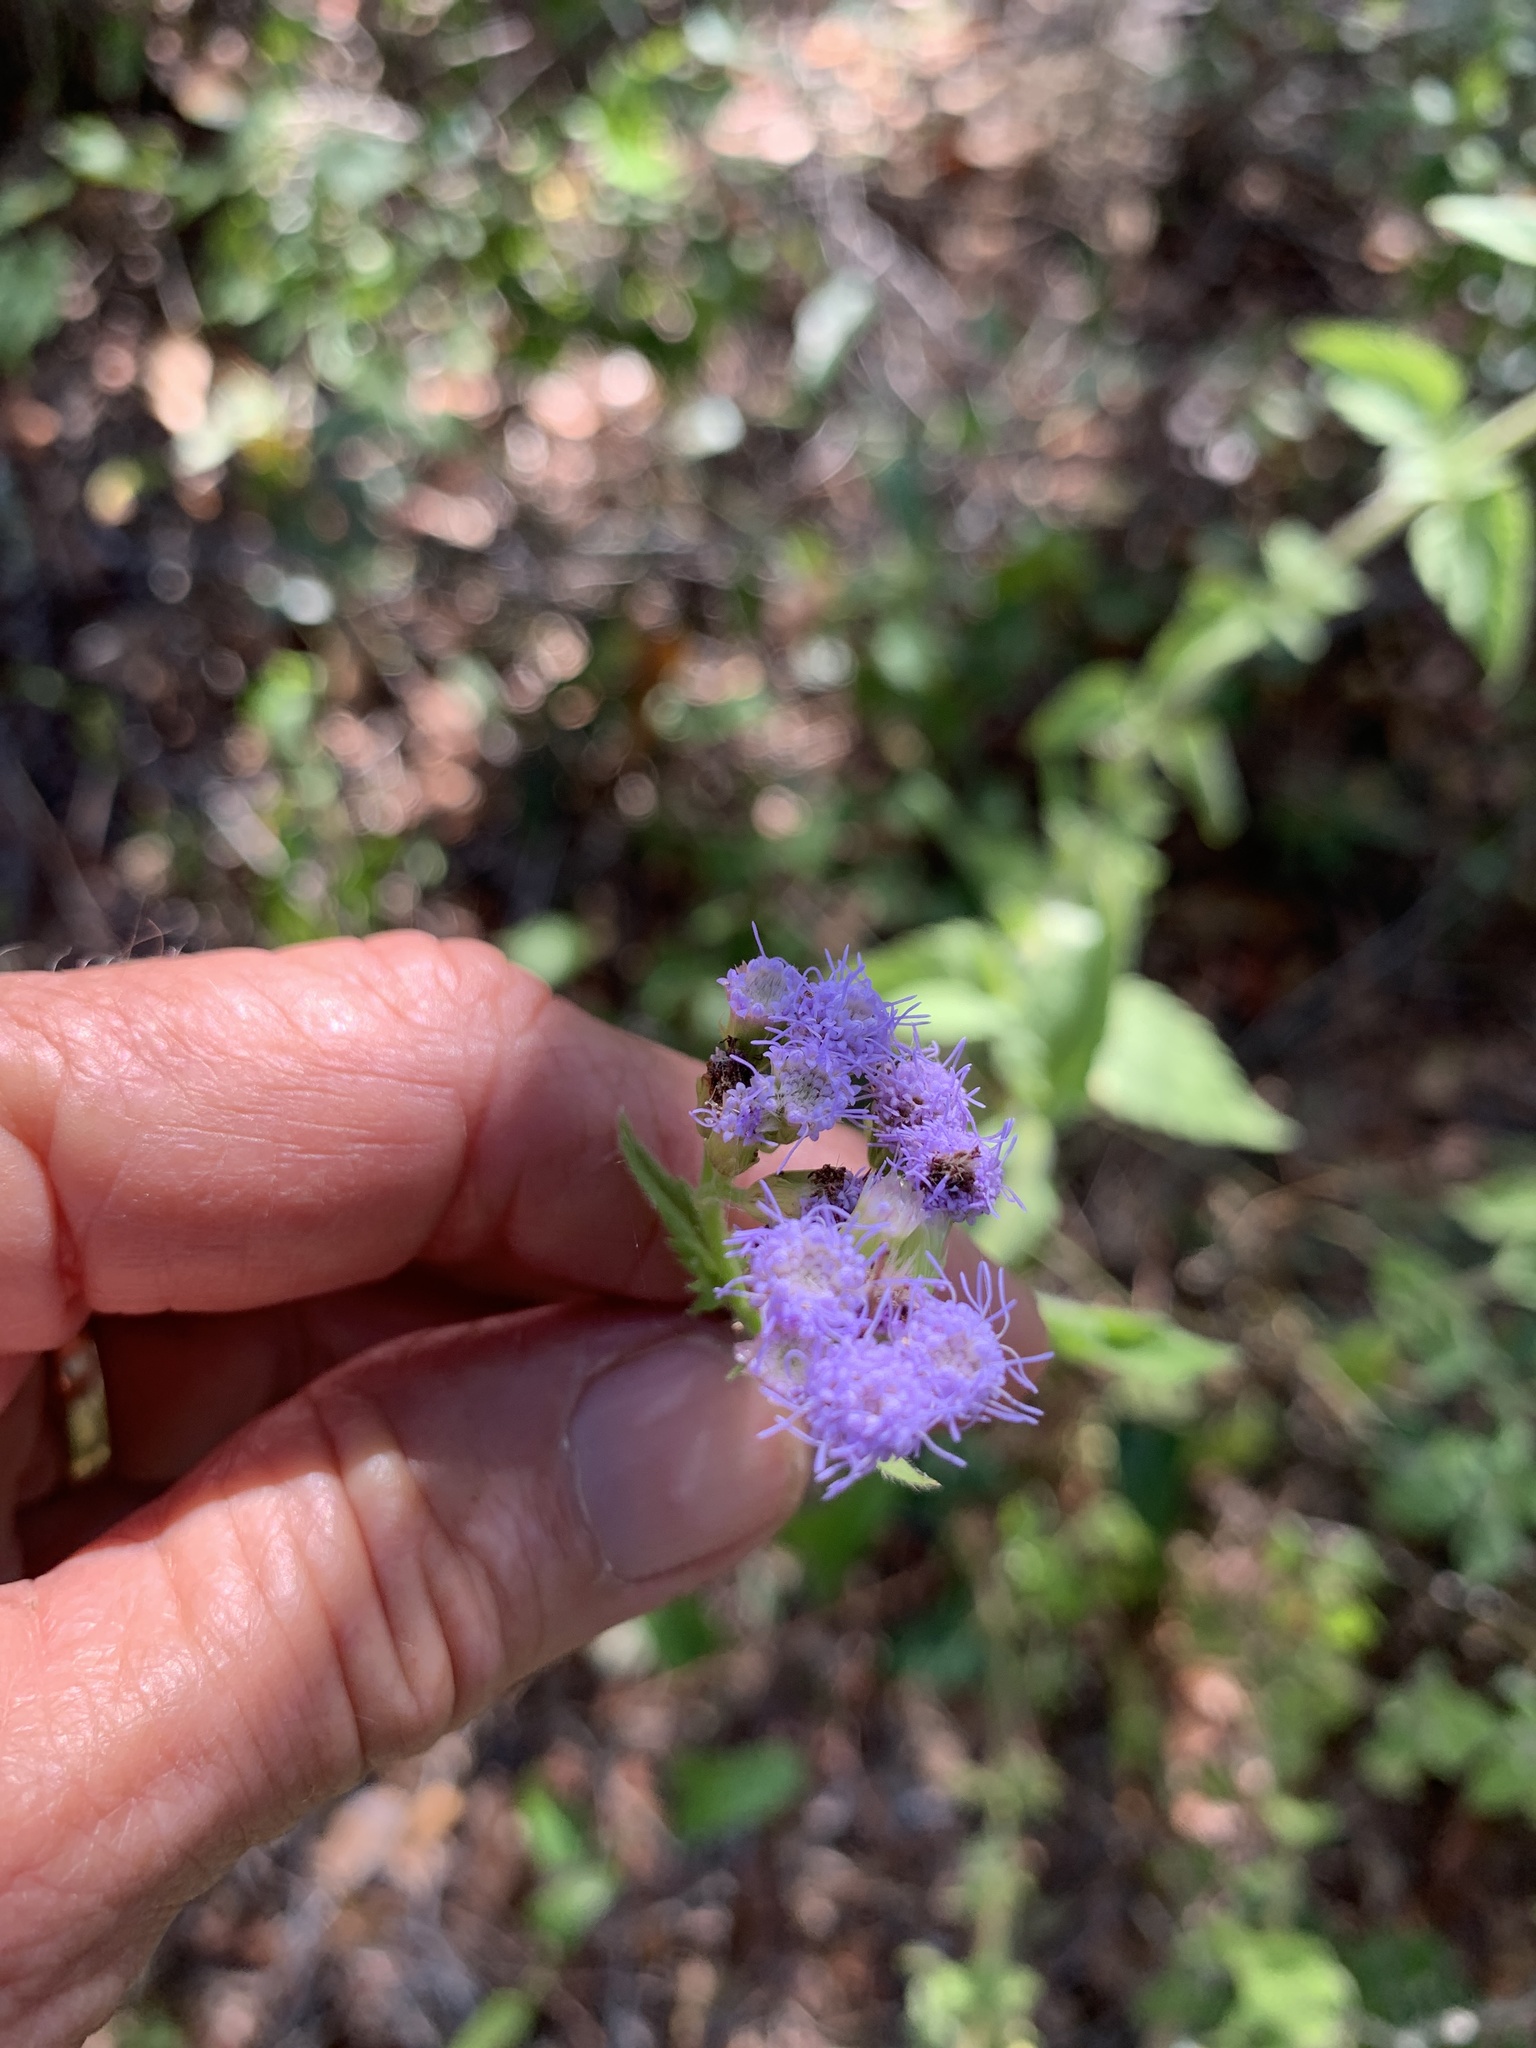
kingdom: Plantae
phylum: Tracheophyta
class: Magnoliopsida
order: Asterales
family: Asteraceae
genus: Praxelis
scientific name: Praxelis clematidea
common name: Praxelis
